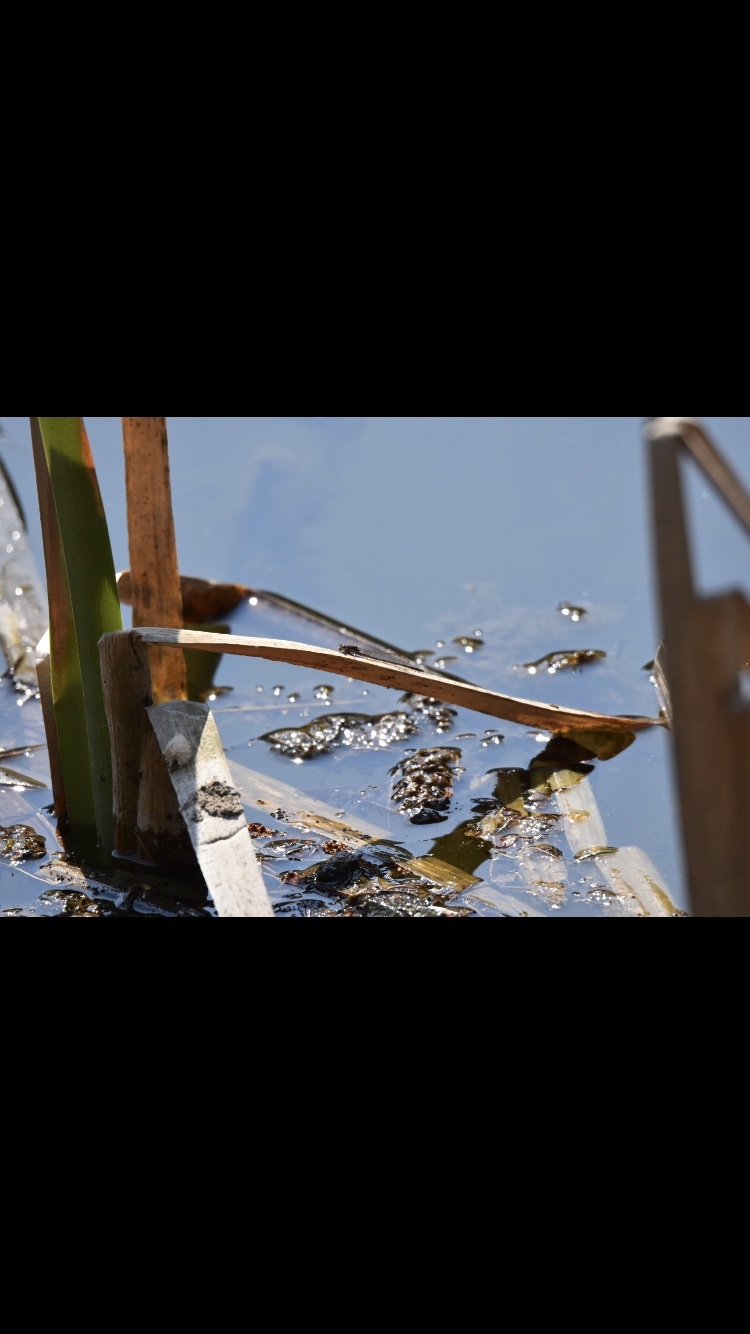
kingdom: Animalia
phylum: Arthropoda
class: Insecta
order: Odonata
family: Lestidae
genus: Sympecma
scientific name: Sympecma fusca
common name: Common winter damsel
